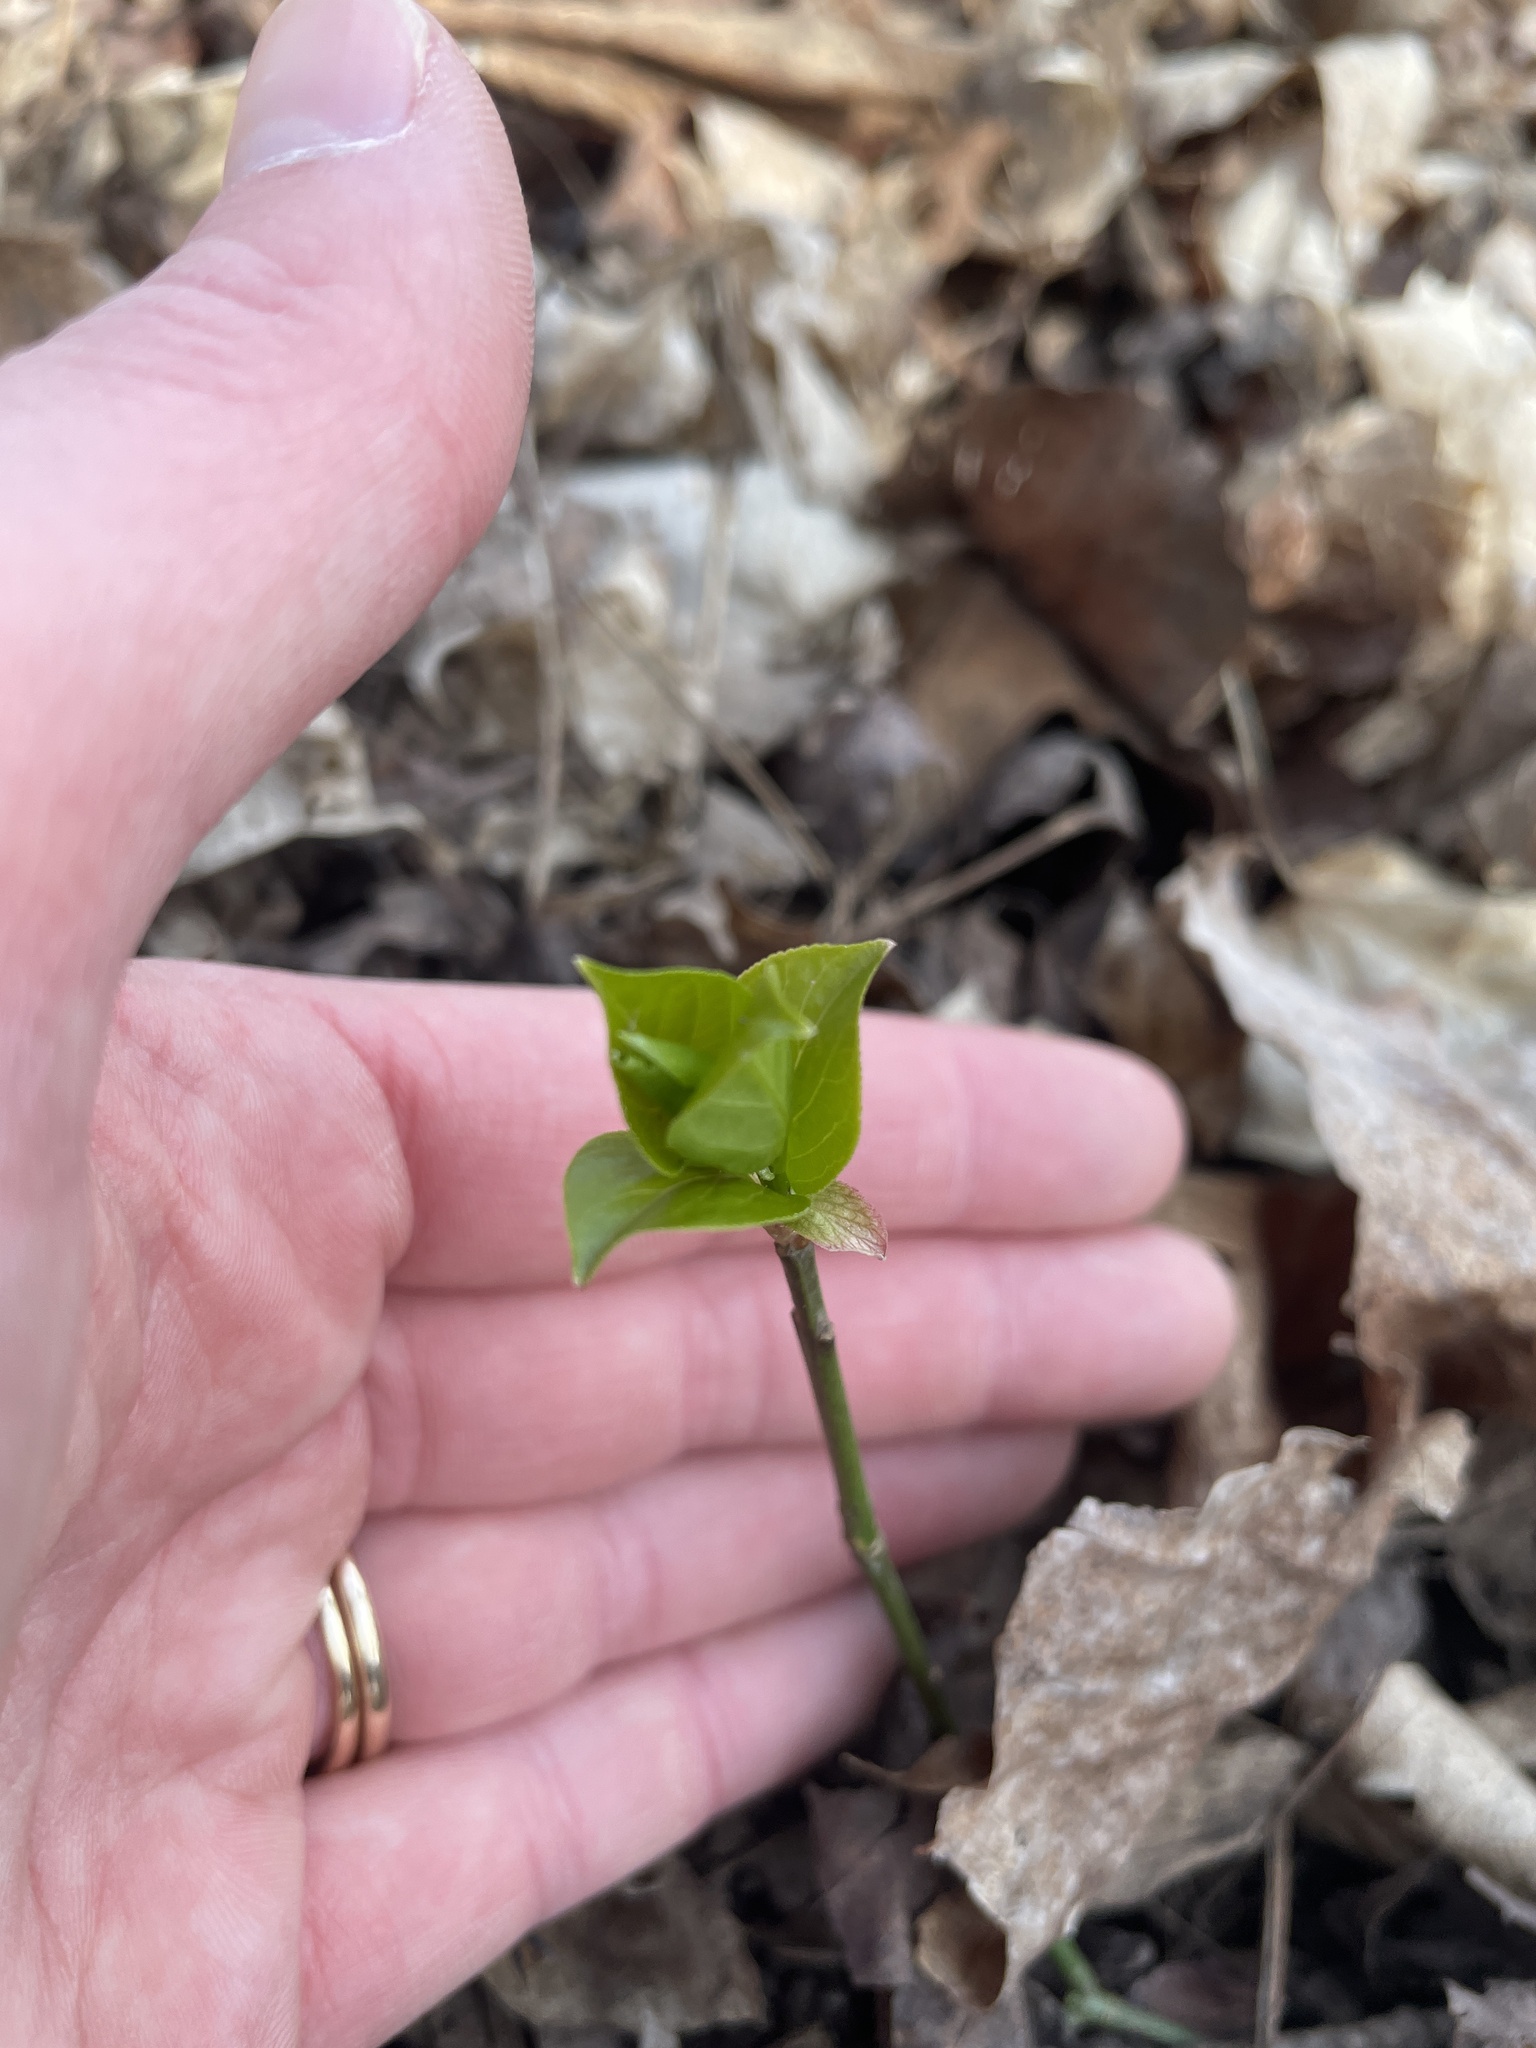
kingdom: Plantae
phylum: Tracheophyta
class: Magnoliopsida
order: Celastrales
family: Celastraceae
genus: Euonymus
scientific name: Euonymus obovatus
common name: Running strawberry-bush
